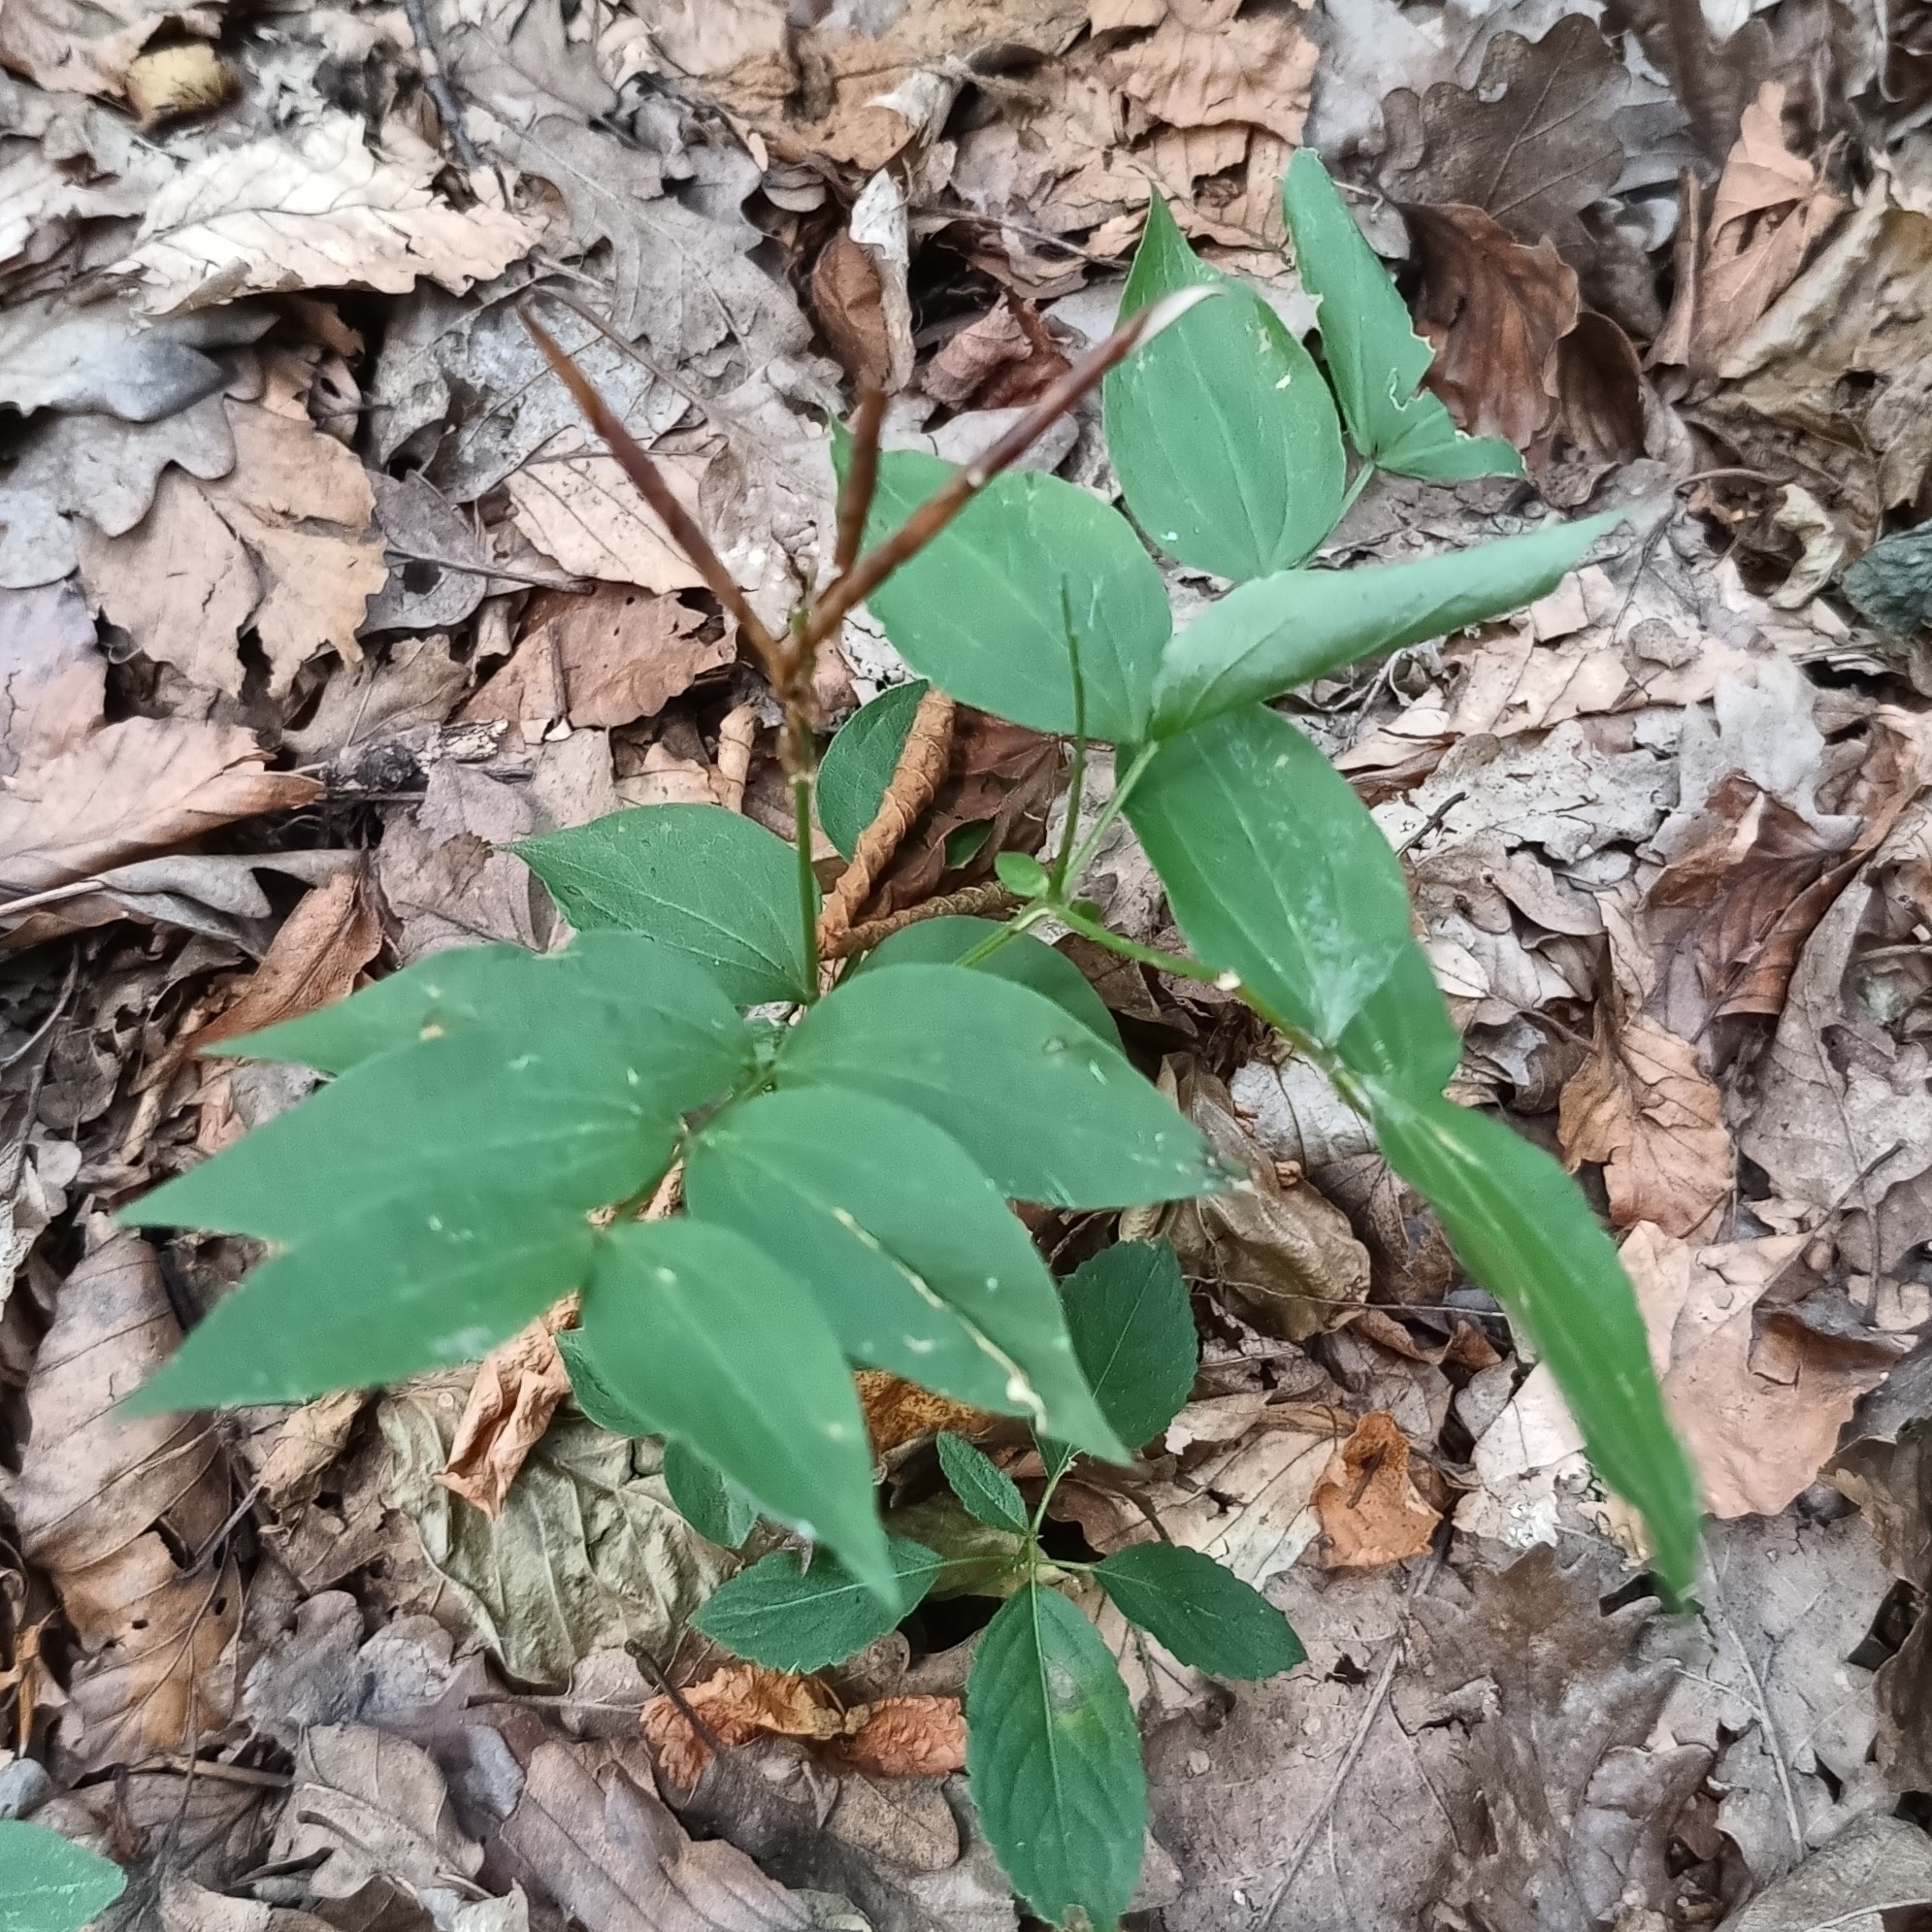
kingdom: Plantae
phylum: Tracheophyta
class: Magnoliopsida
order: Fabales
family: Fabaceae
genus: Lathyrus
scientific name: Lathyrus vernus
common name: Spring pea
